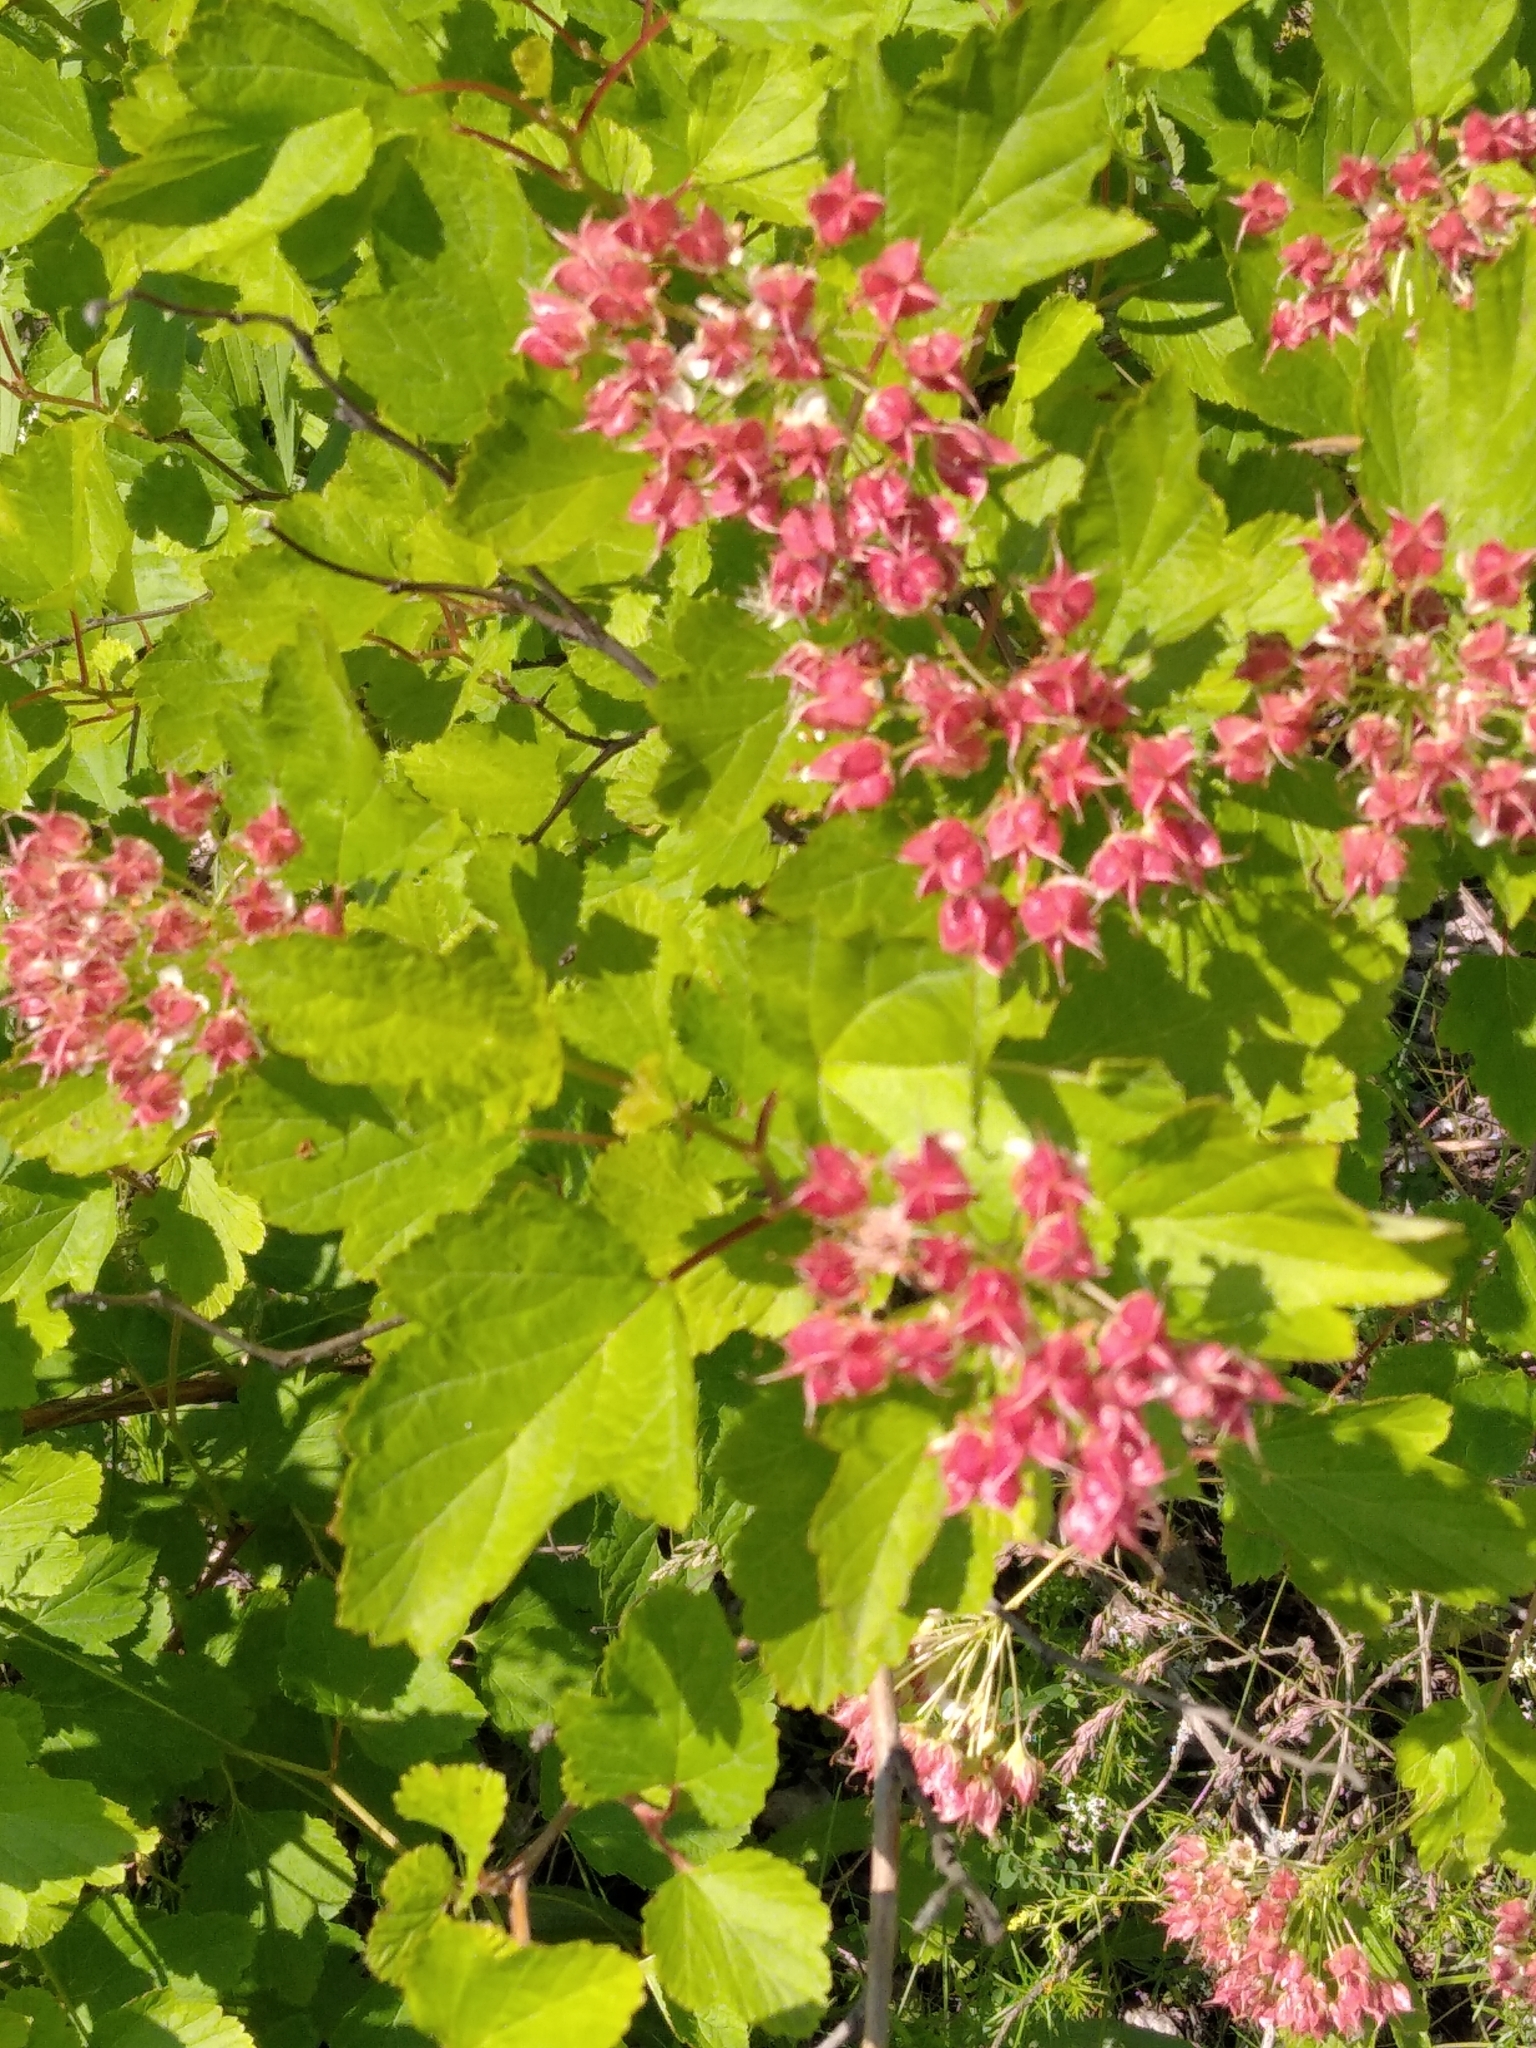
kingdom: Plantae
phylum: Tracheophyta
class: Magnoliopsida
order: Rosales
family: Rosaceae
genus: Physocarpus
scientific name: Physocarpus opulifolius
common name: Ninebark
